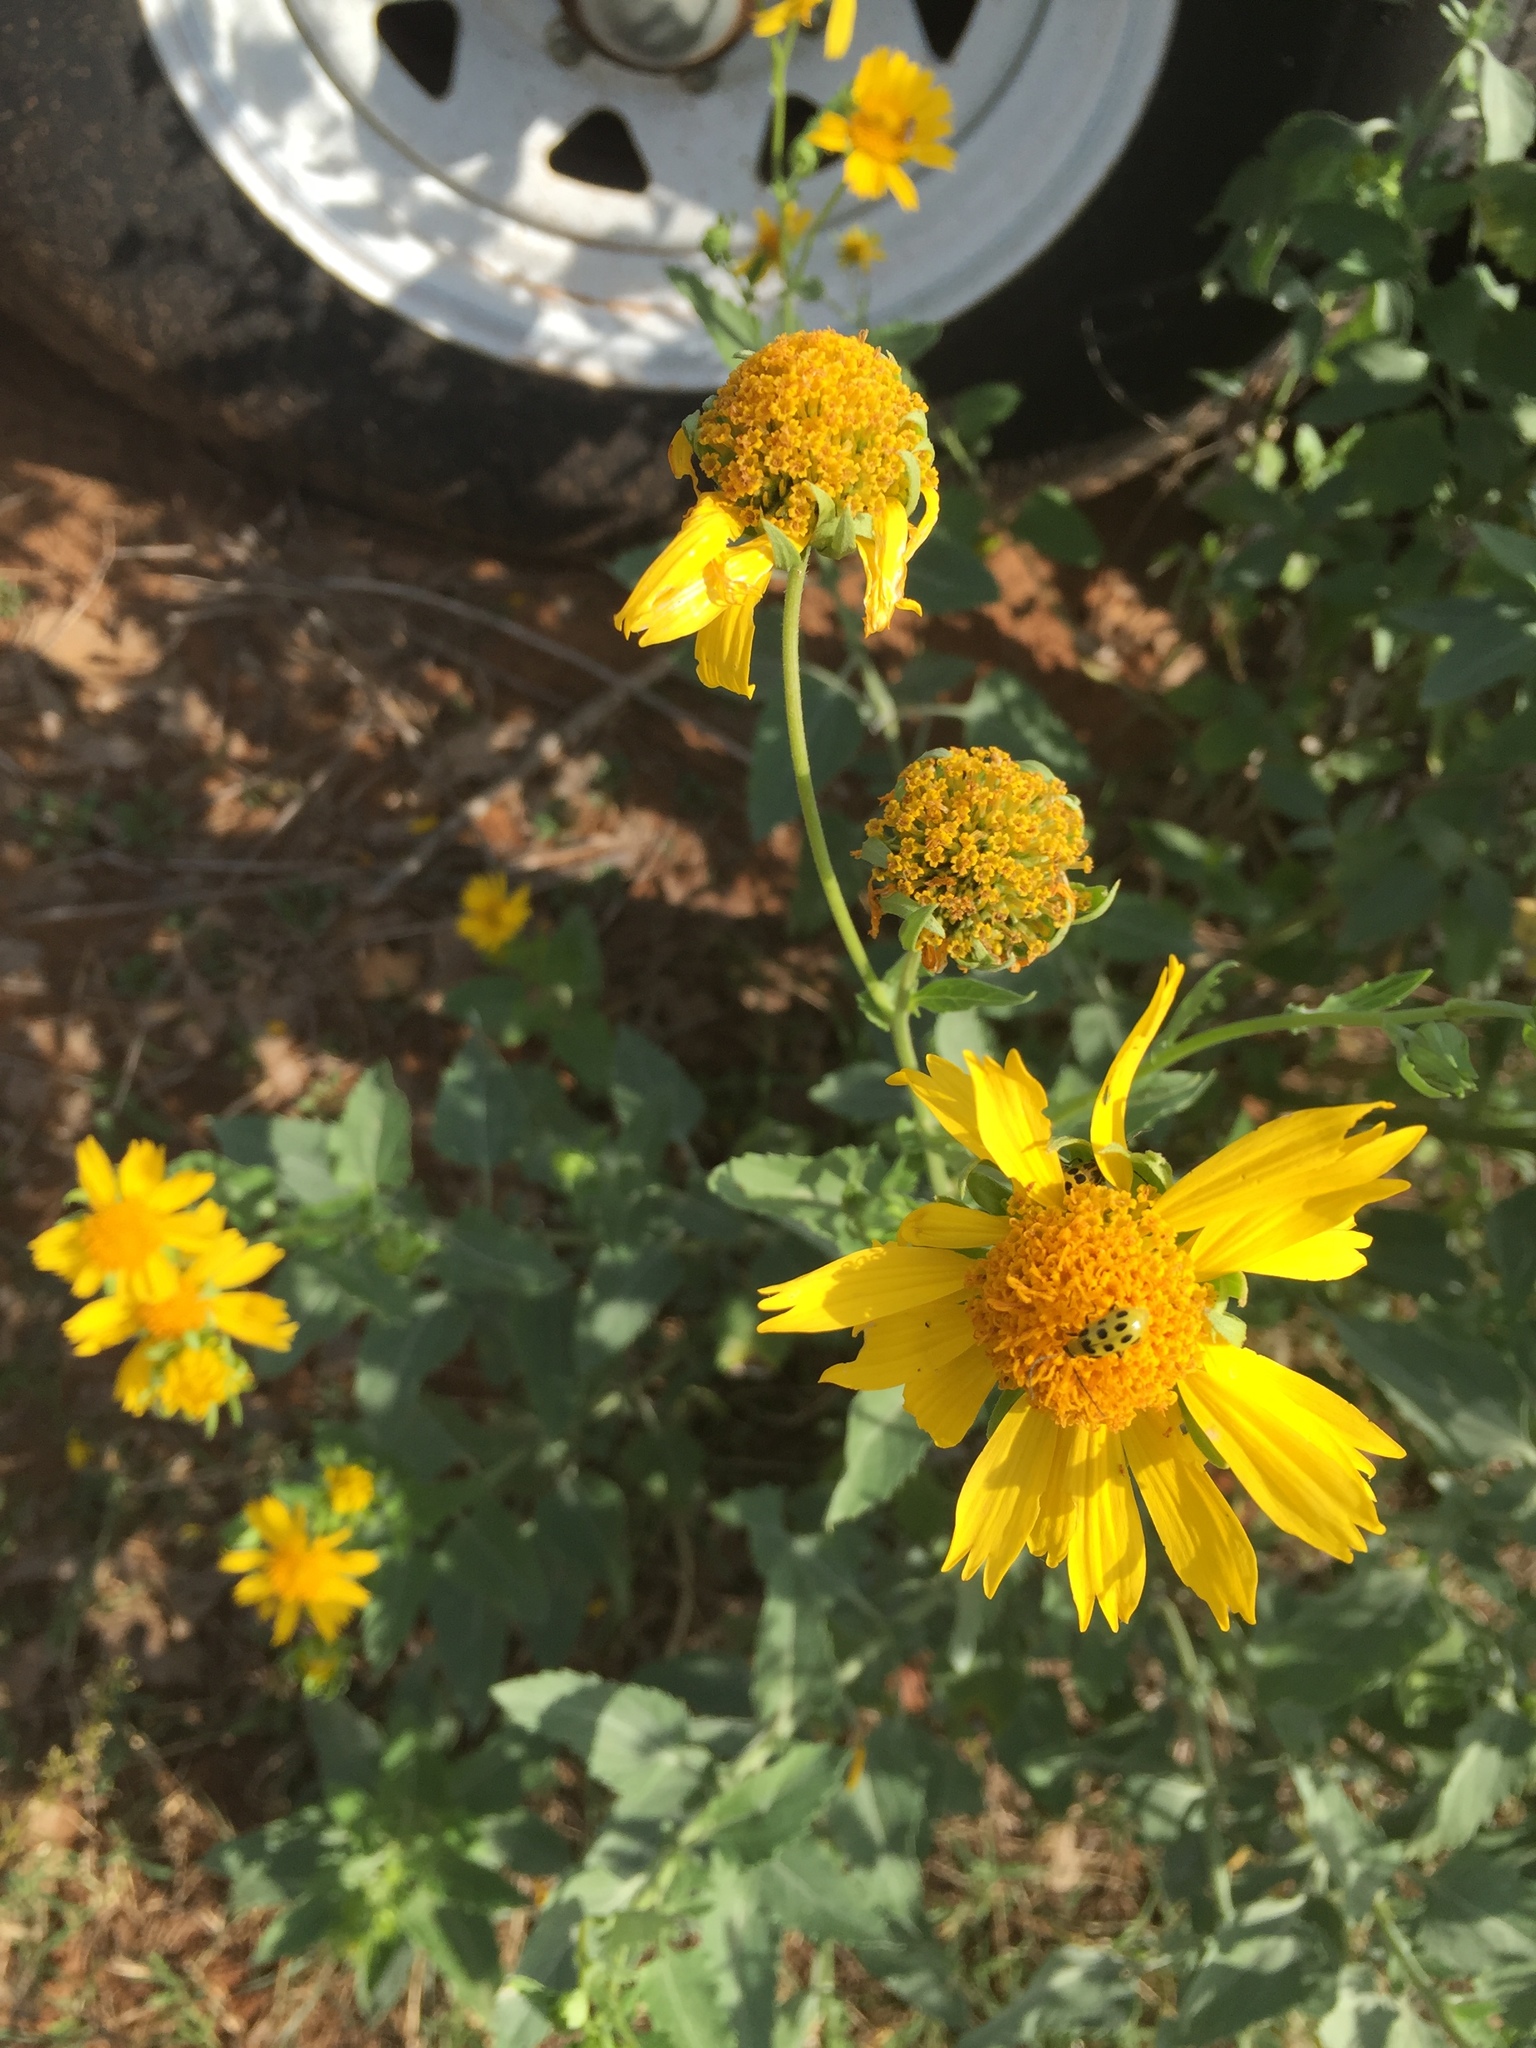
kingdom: Animalia
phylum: Arthropoda
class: Insecta
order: Coleoptera
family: Chrysomelidae
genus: Diabrotica
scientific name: Diabrotica undecimpunctata
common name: Spotted cucumber beetle
